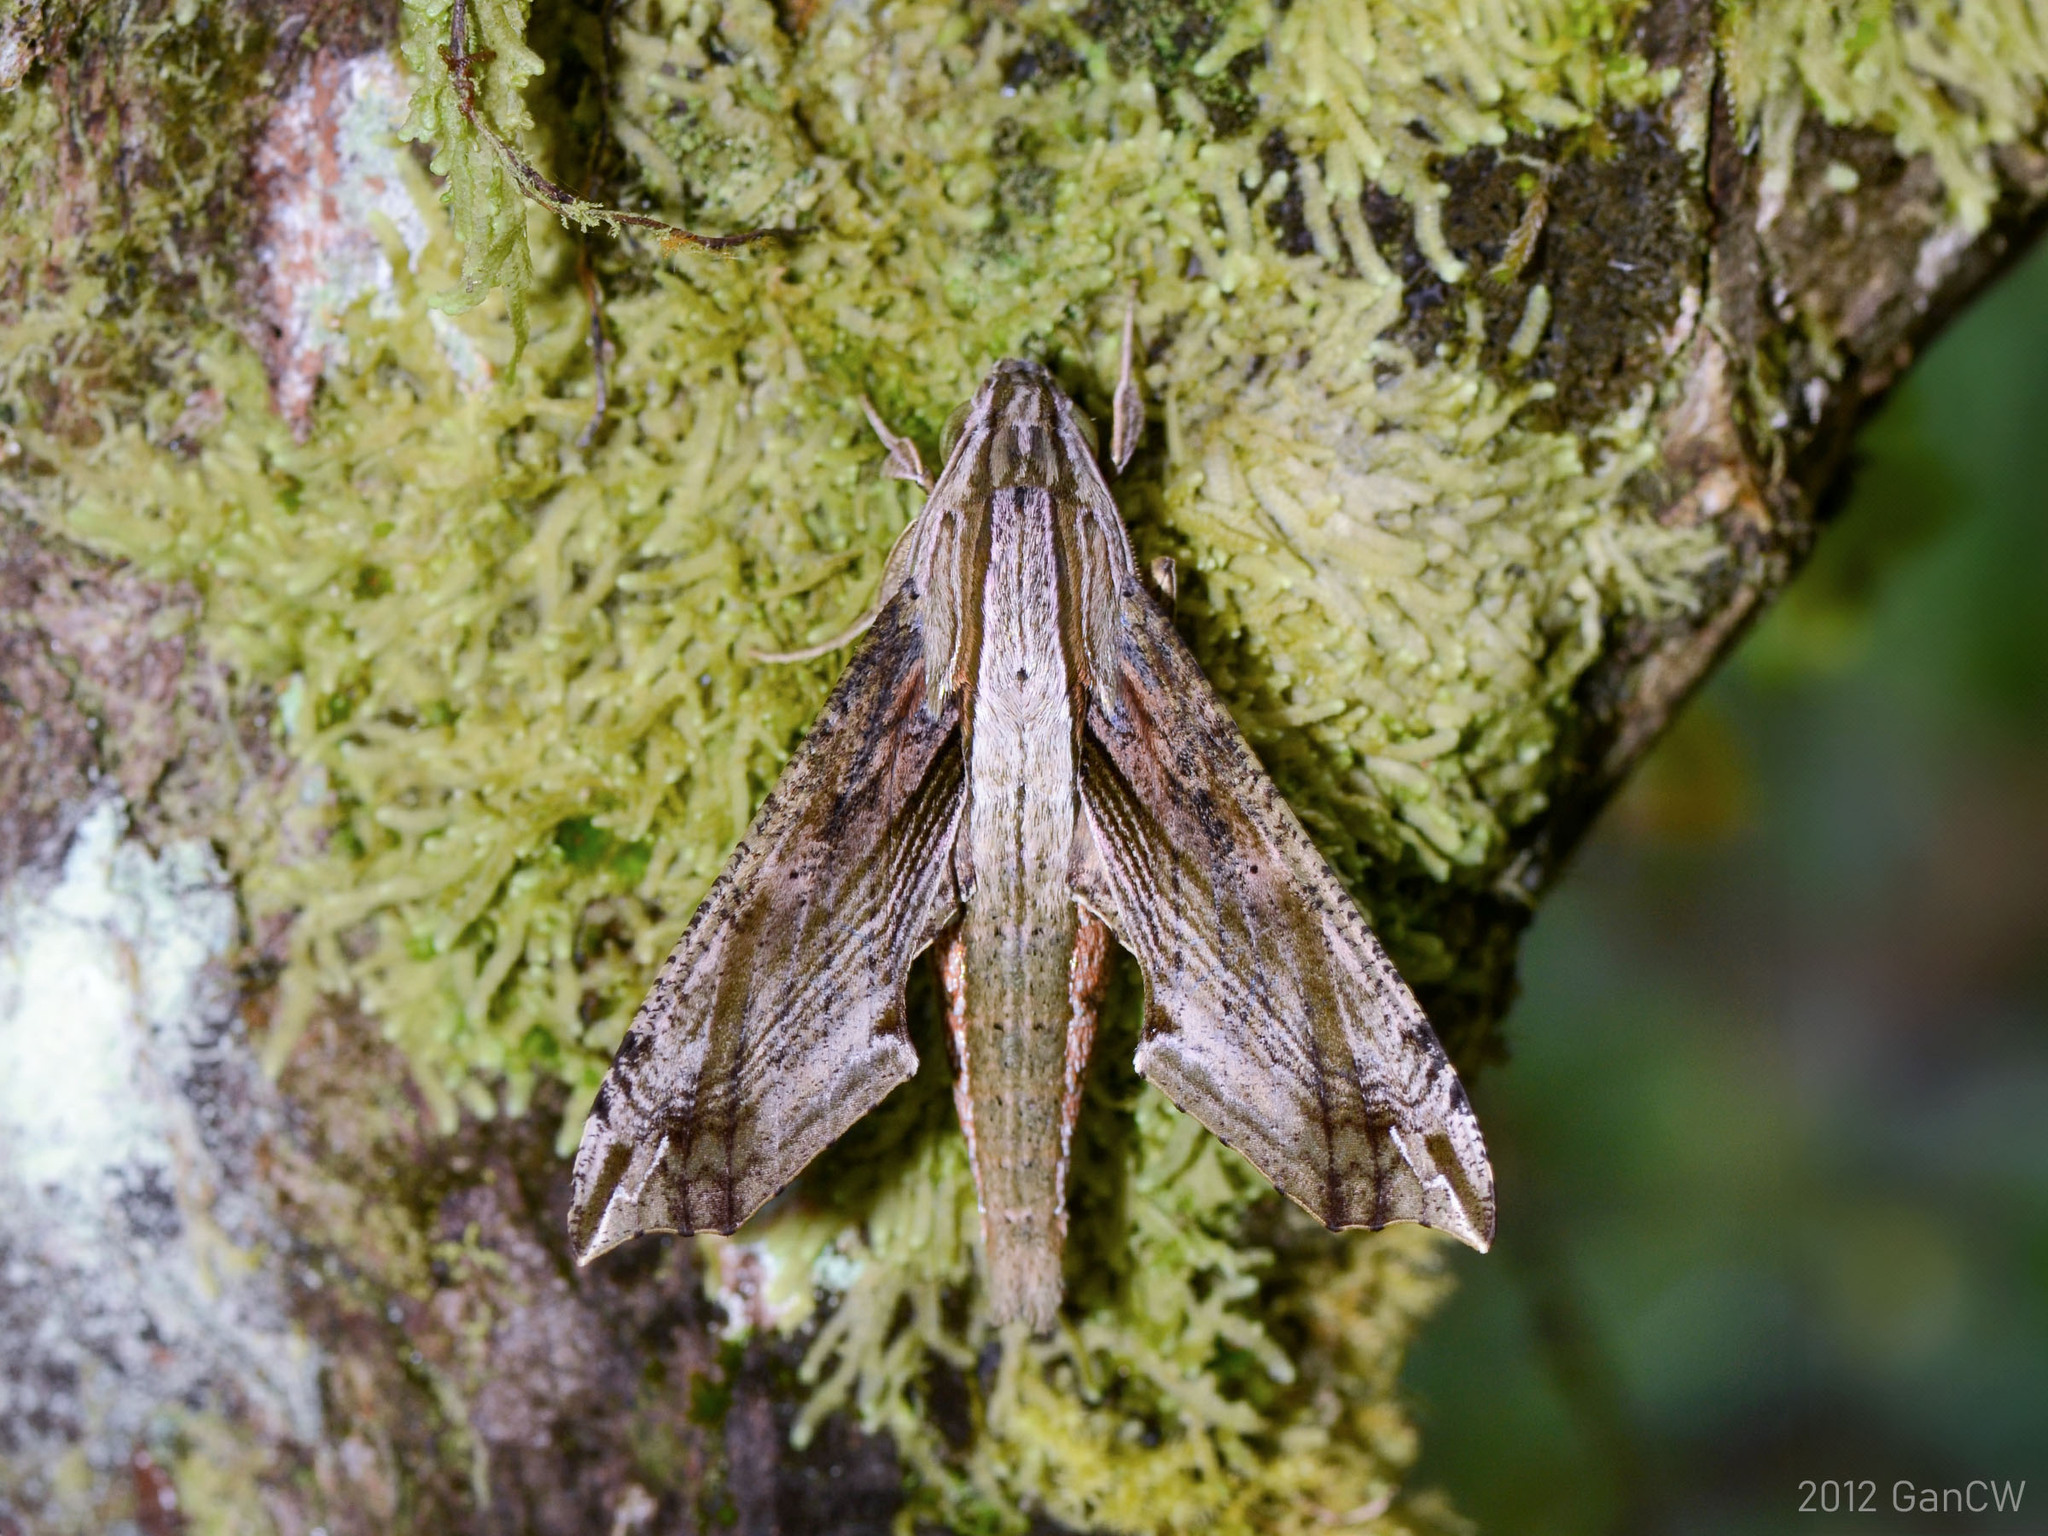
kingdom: Animalia
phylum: Arthropoda
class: Insecta
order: Lepidoptera
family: Sphingidae
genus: Eupanacra
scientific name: Eupanacra regularis
